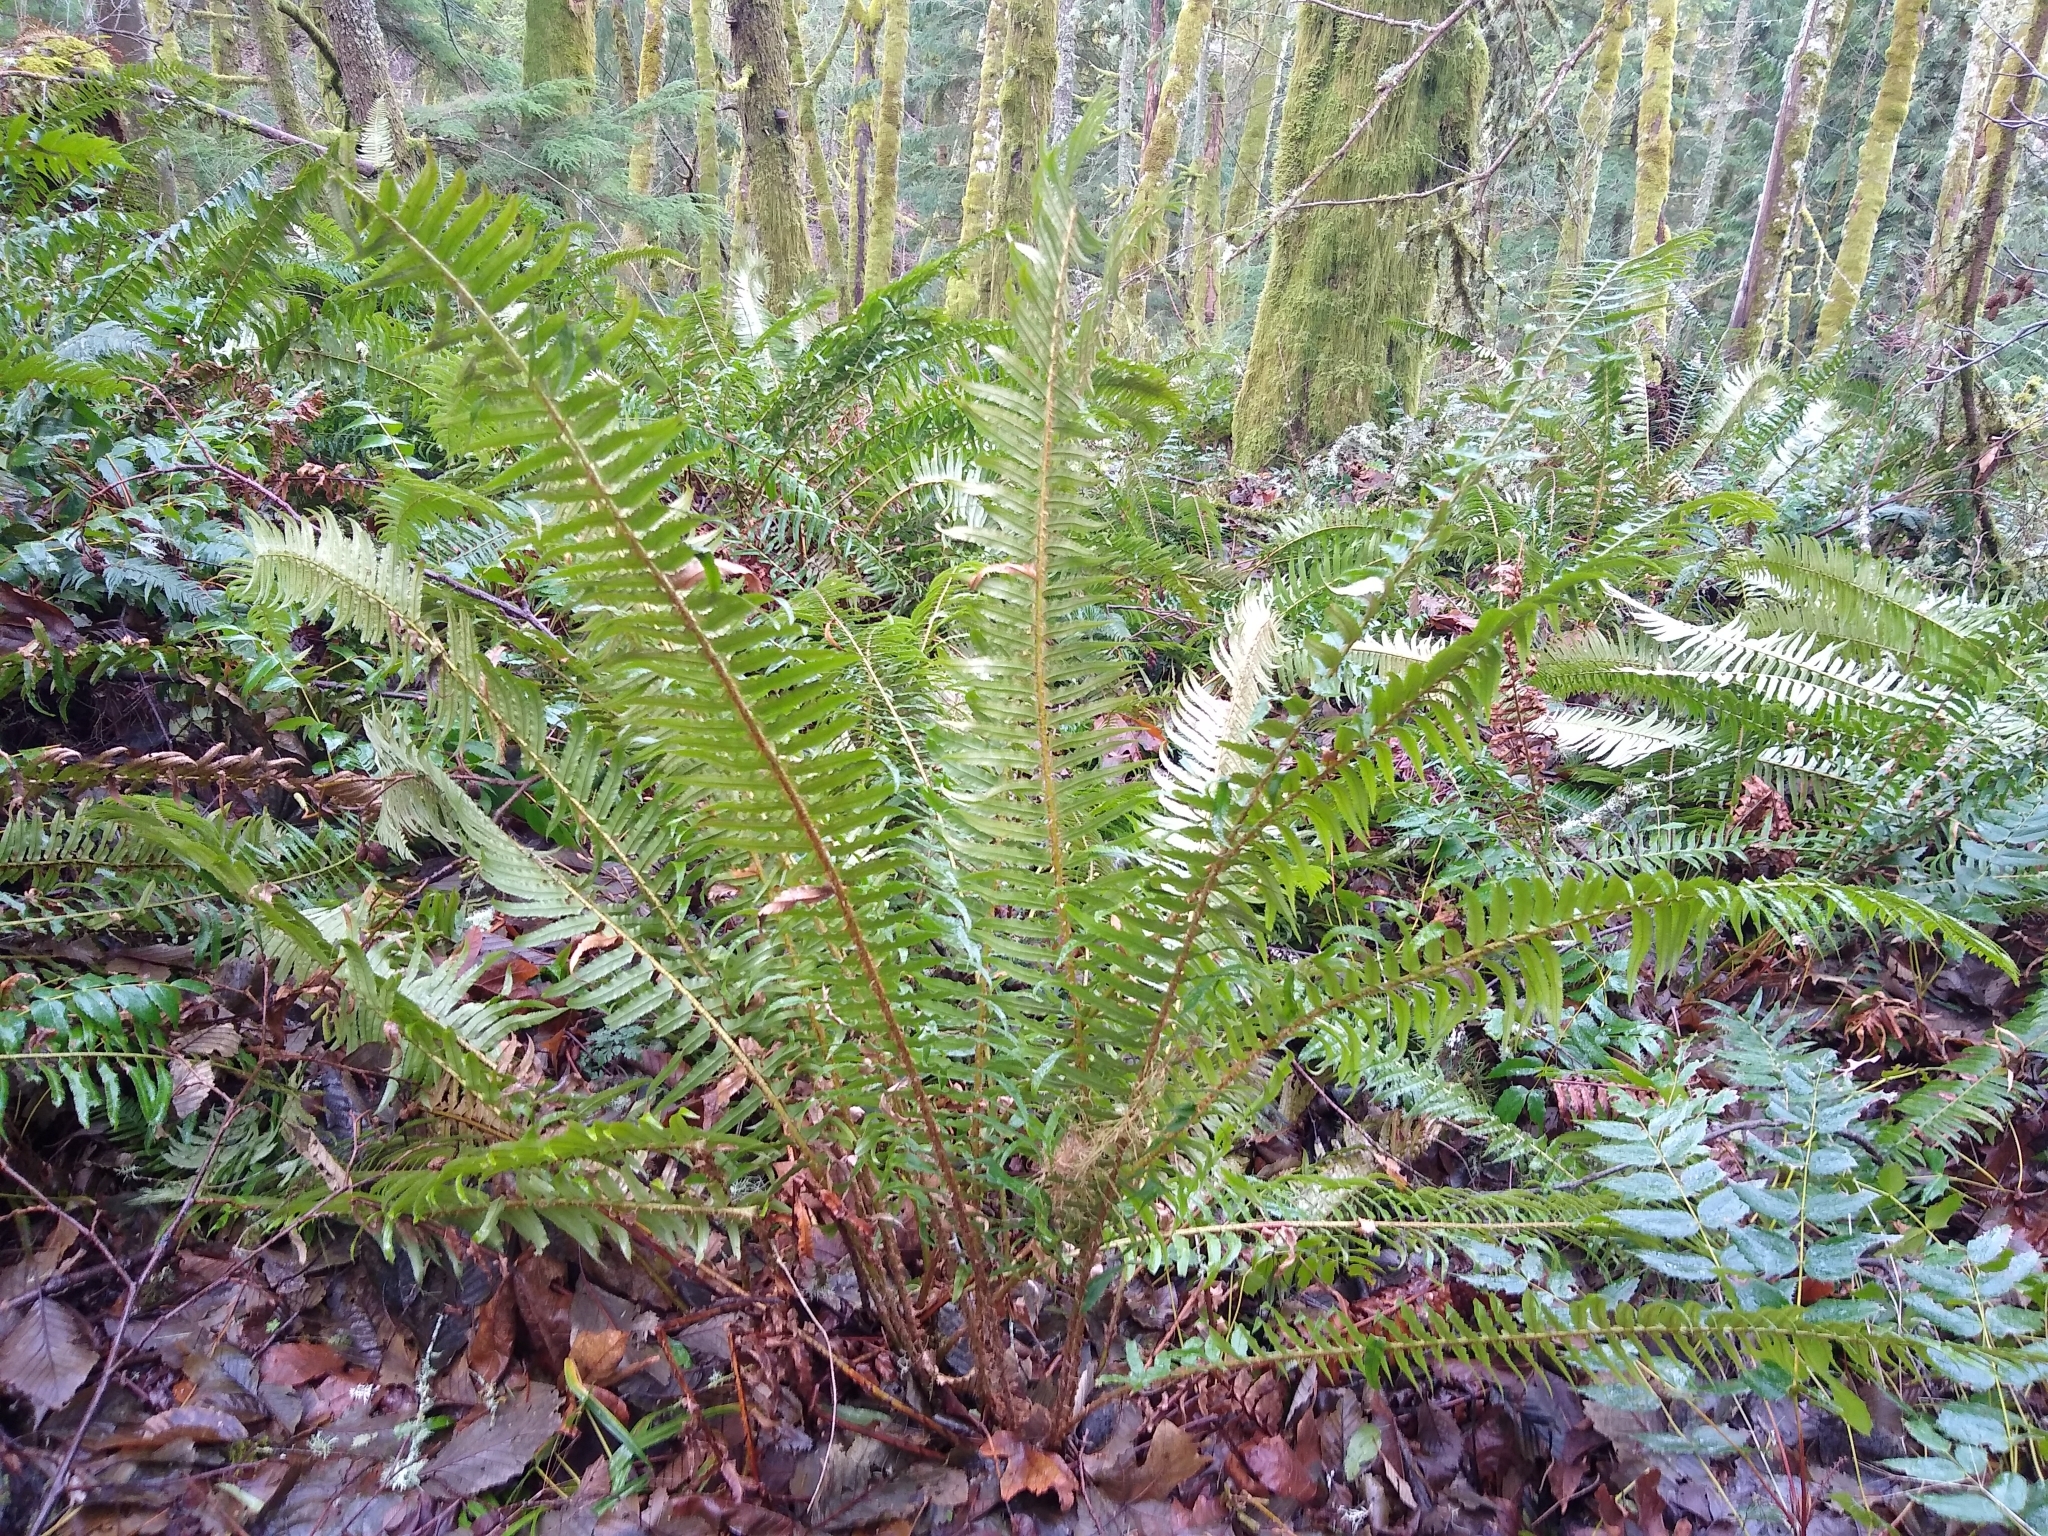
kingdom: Plantae
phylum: Tracheophyta
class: Polypodiopsida
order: Polypodiales
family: Dryopteridaceae
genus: Polystichum
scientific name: Polystichum munitum
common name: Western sword-fern
